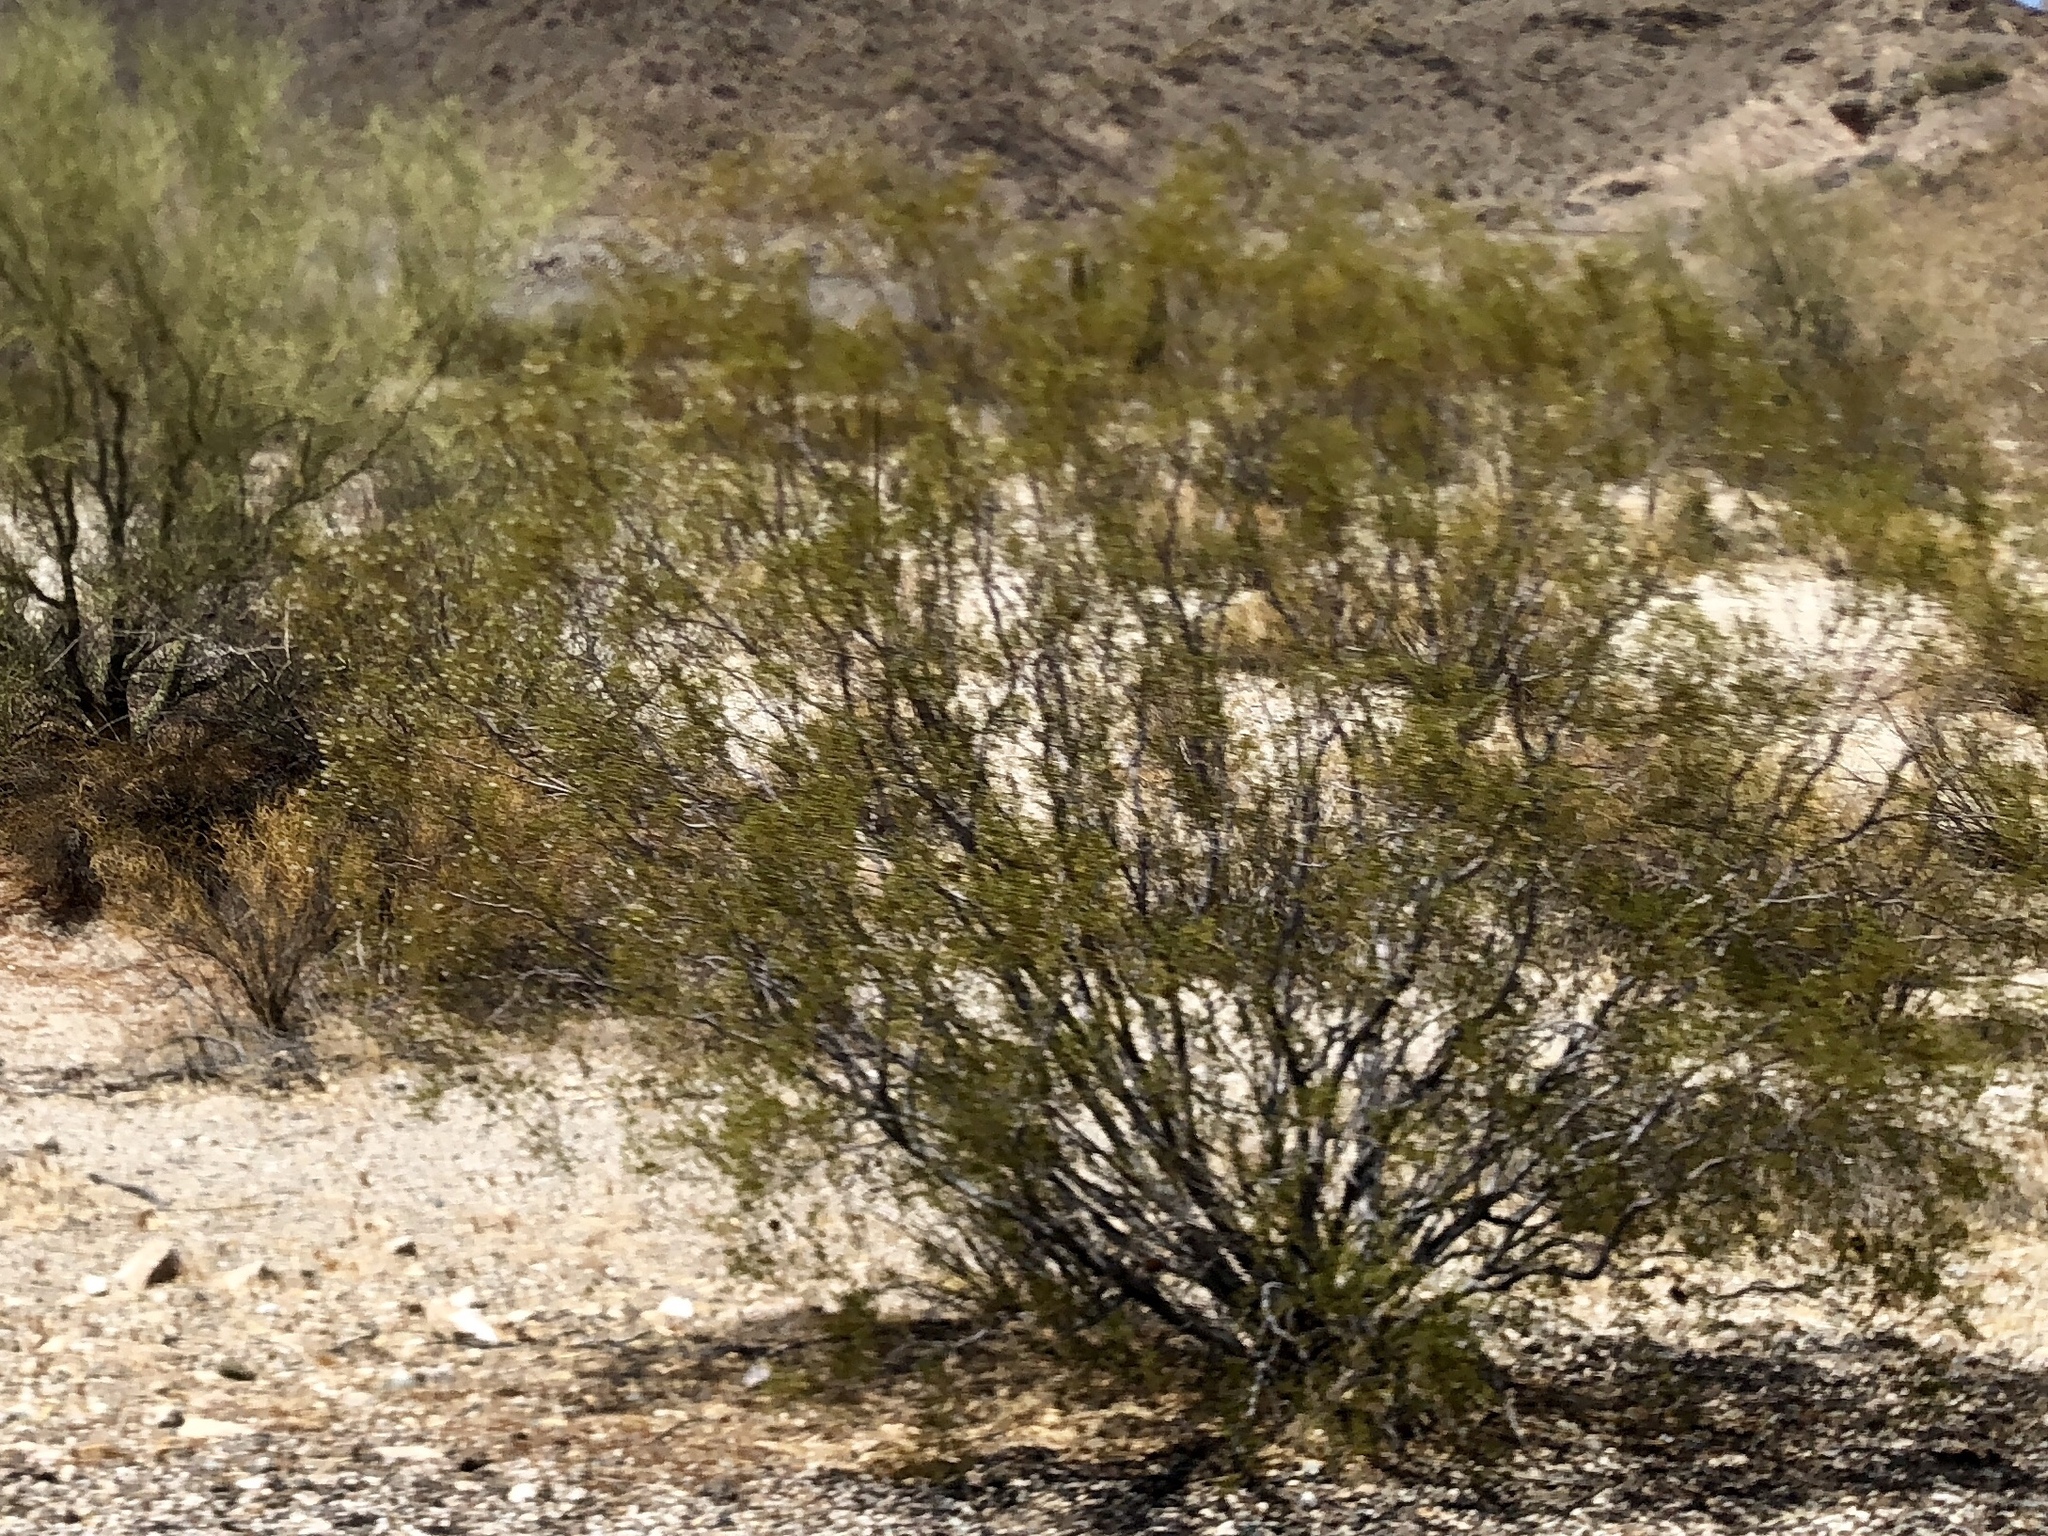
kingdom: Plantae
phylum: Tracheophyta
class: Magnoliopsida
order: Zygophyllales
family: Zygophyllaceae
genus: Larrea
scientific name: Larrea tridentata
